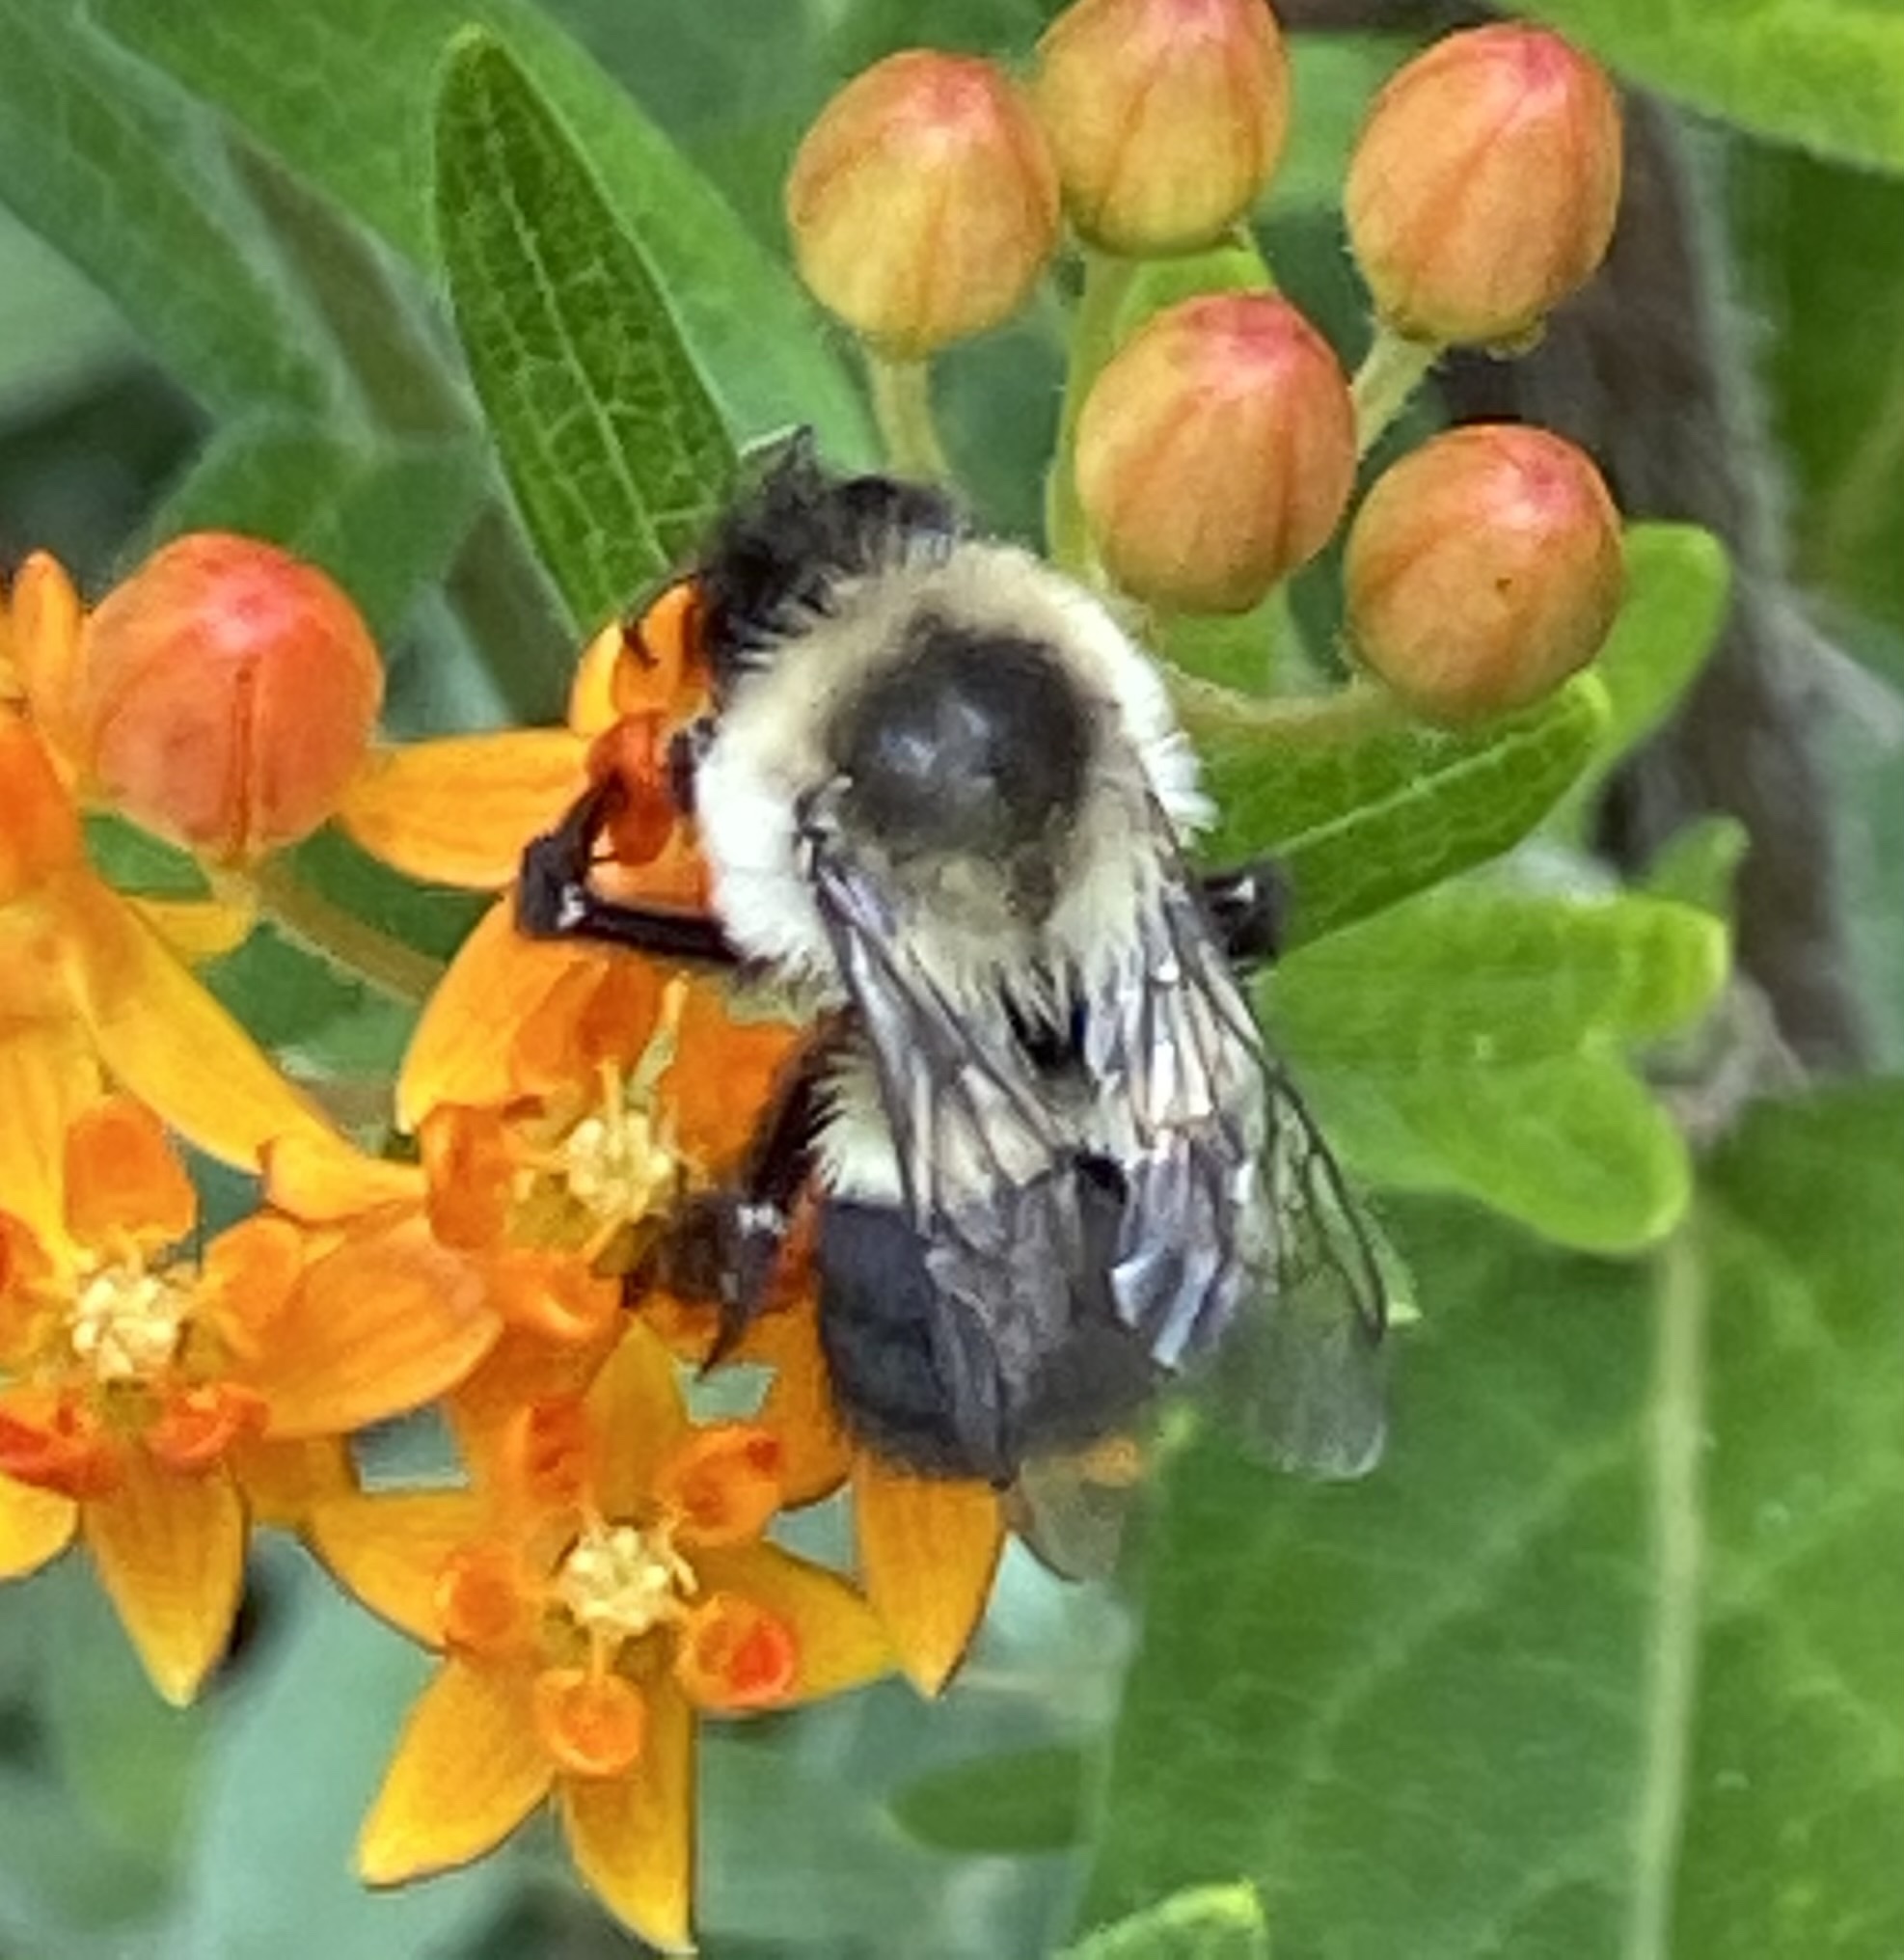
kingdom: Animalia
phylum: Arthropoda
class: Insecta
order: Hymenoptera
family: Apidae
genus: Bombus
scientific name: Bombus impatiens
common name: Common eastern bumble bee
